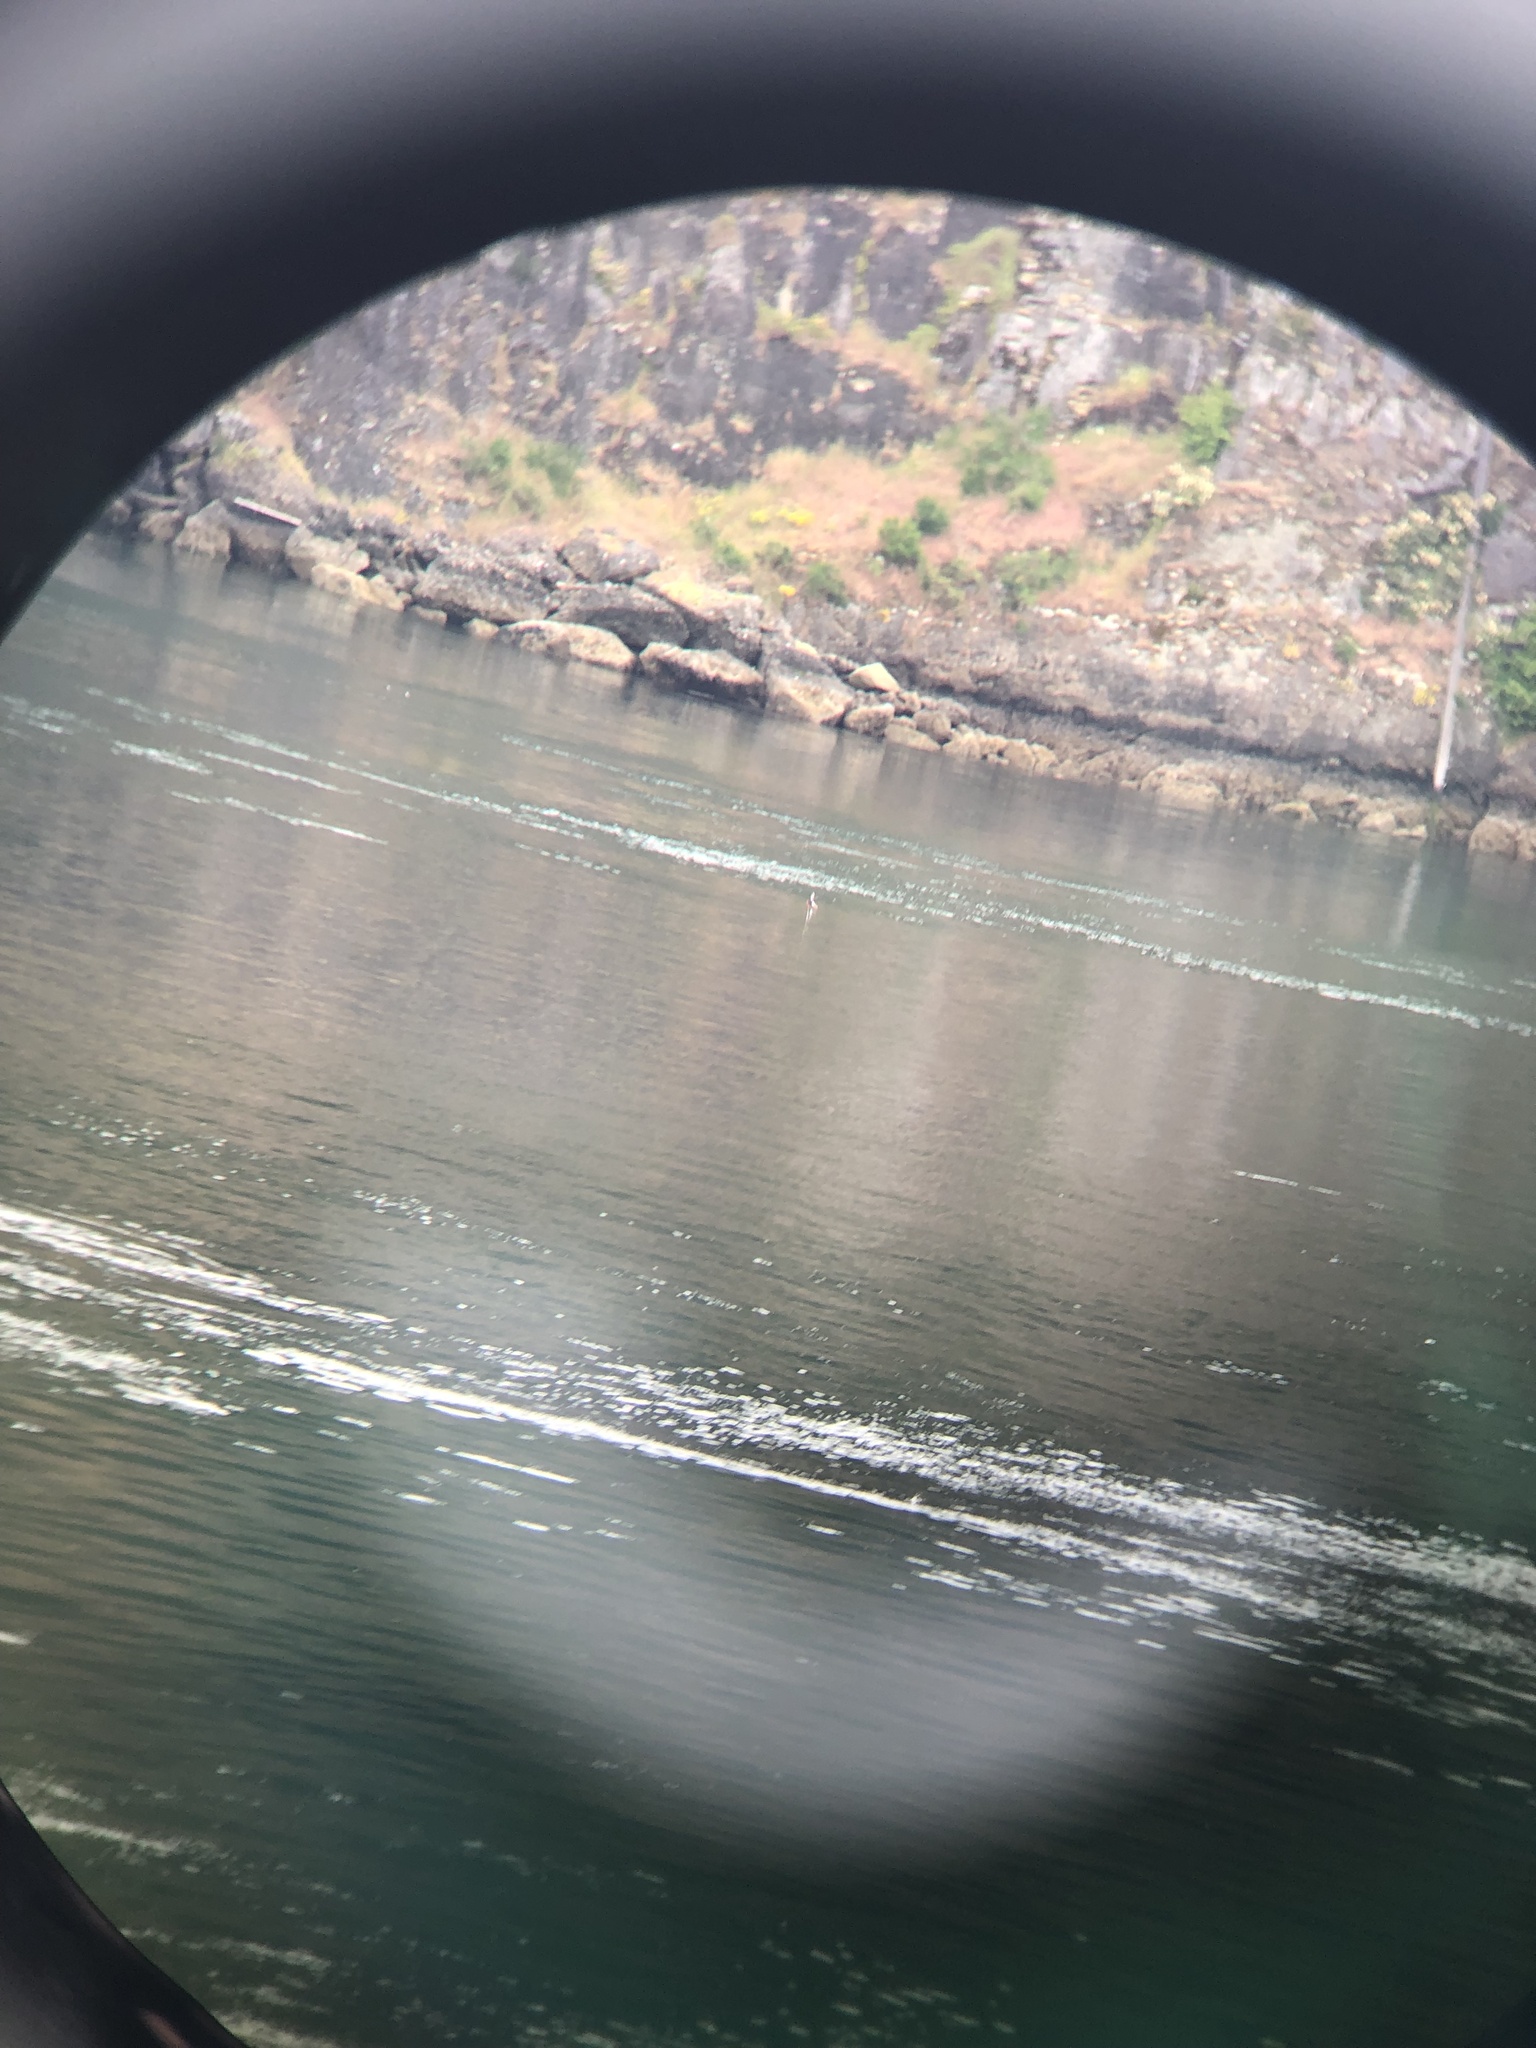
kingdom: Animalia
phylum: Chordata
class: Aves
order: Charadriiformes
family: Alcidae
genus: Cepphus
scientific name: Cepphus columba
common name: Pigeon guillemot
